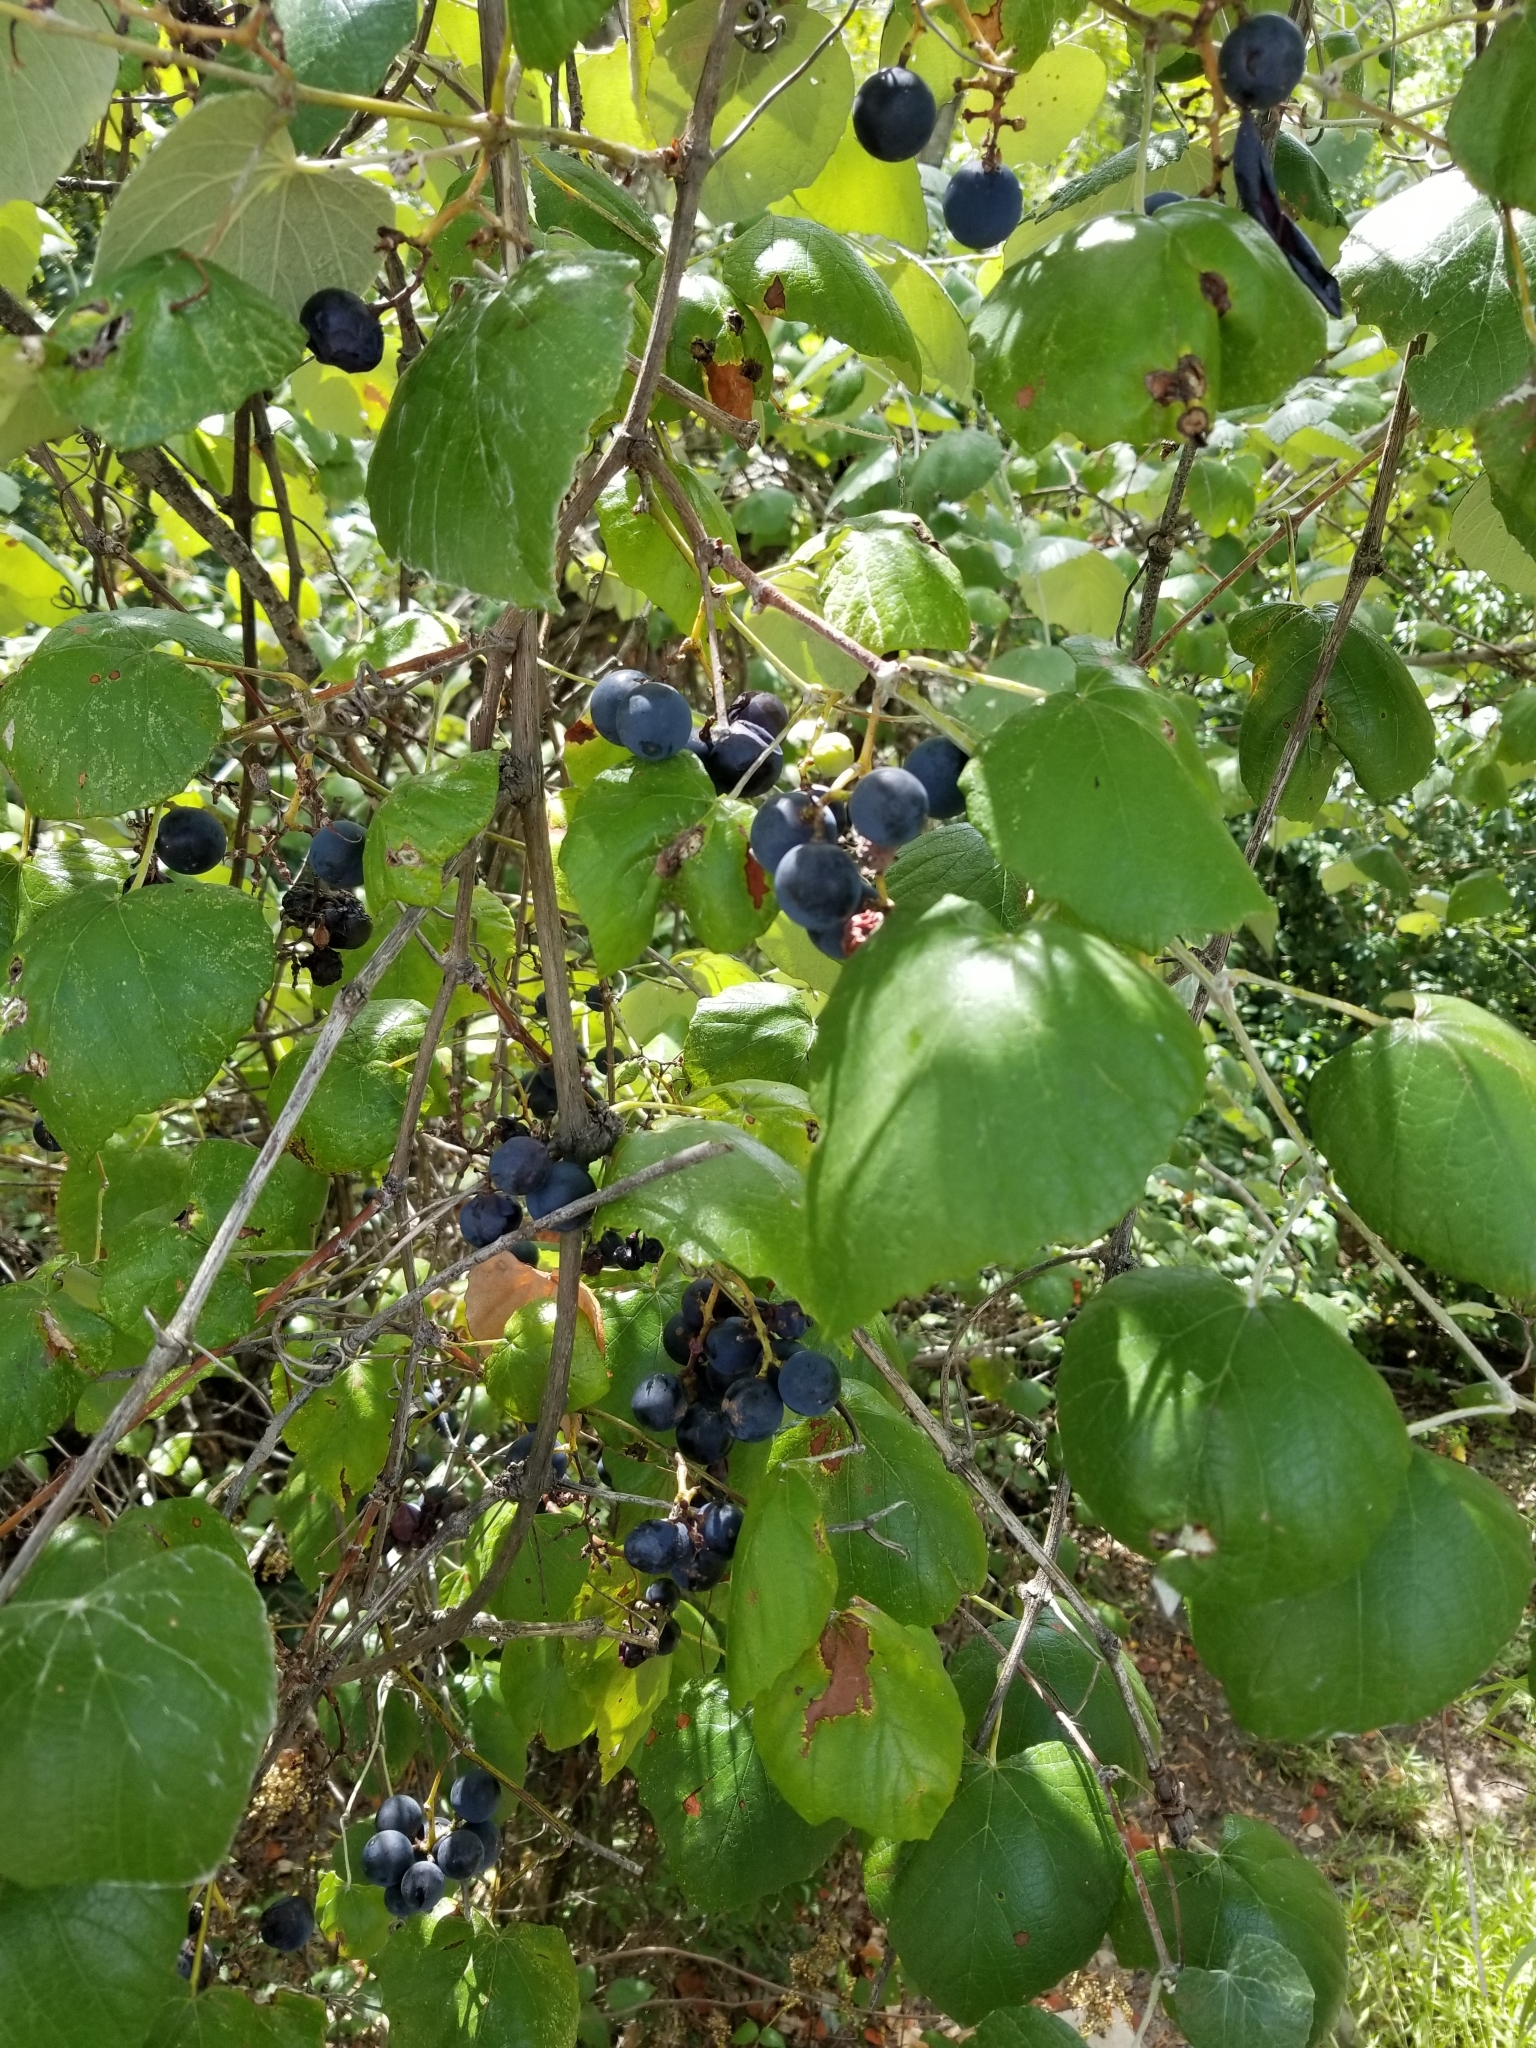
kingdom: Plantae
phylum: Tracheophyta
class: Magnoliopsida
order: Vitales
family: Vitaceae
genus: Vitis
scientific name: Vitis mustangensis
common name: Mustang grape
